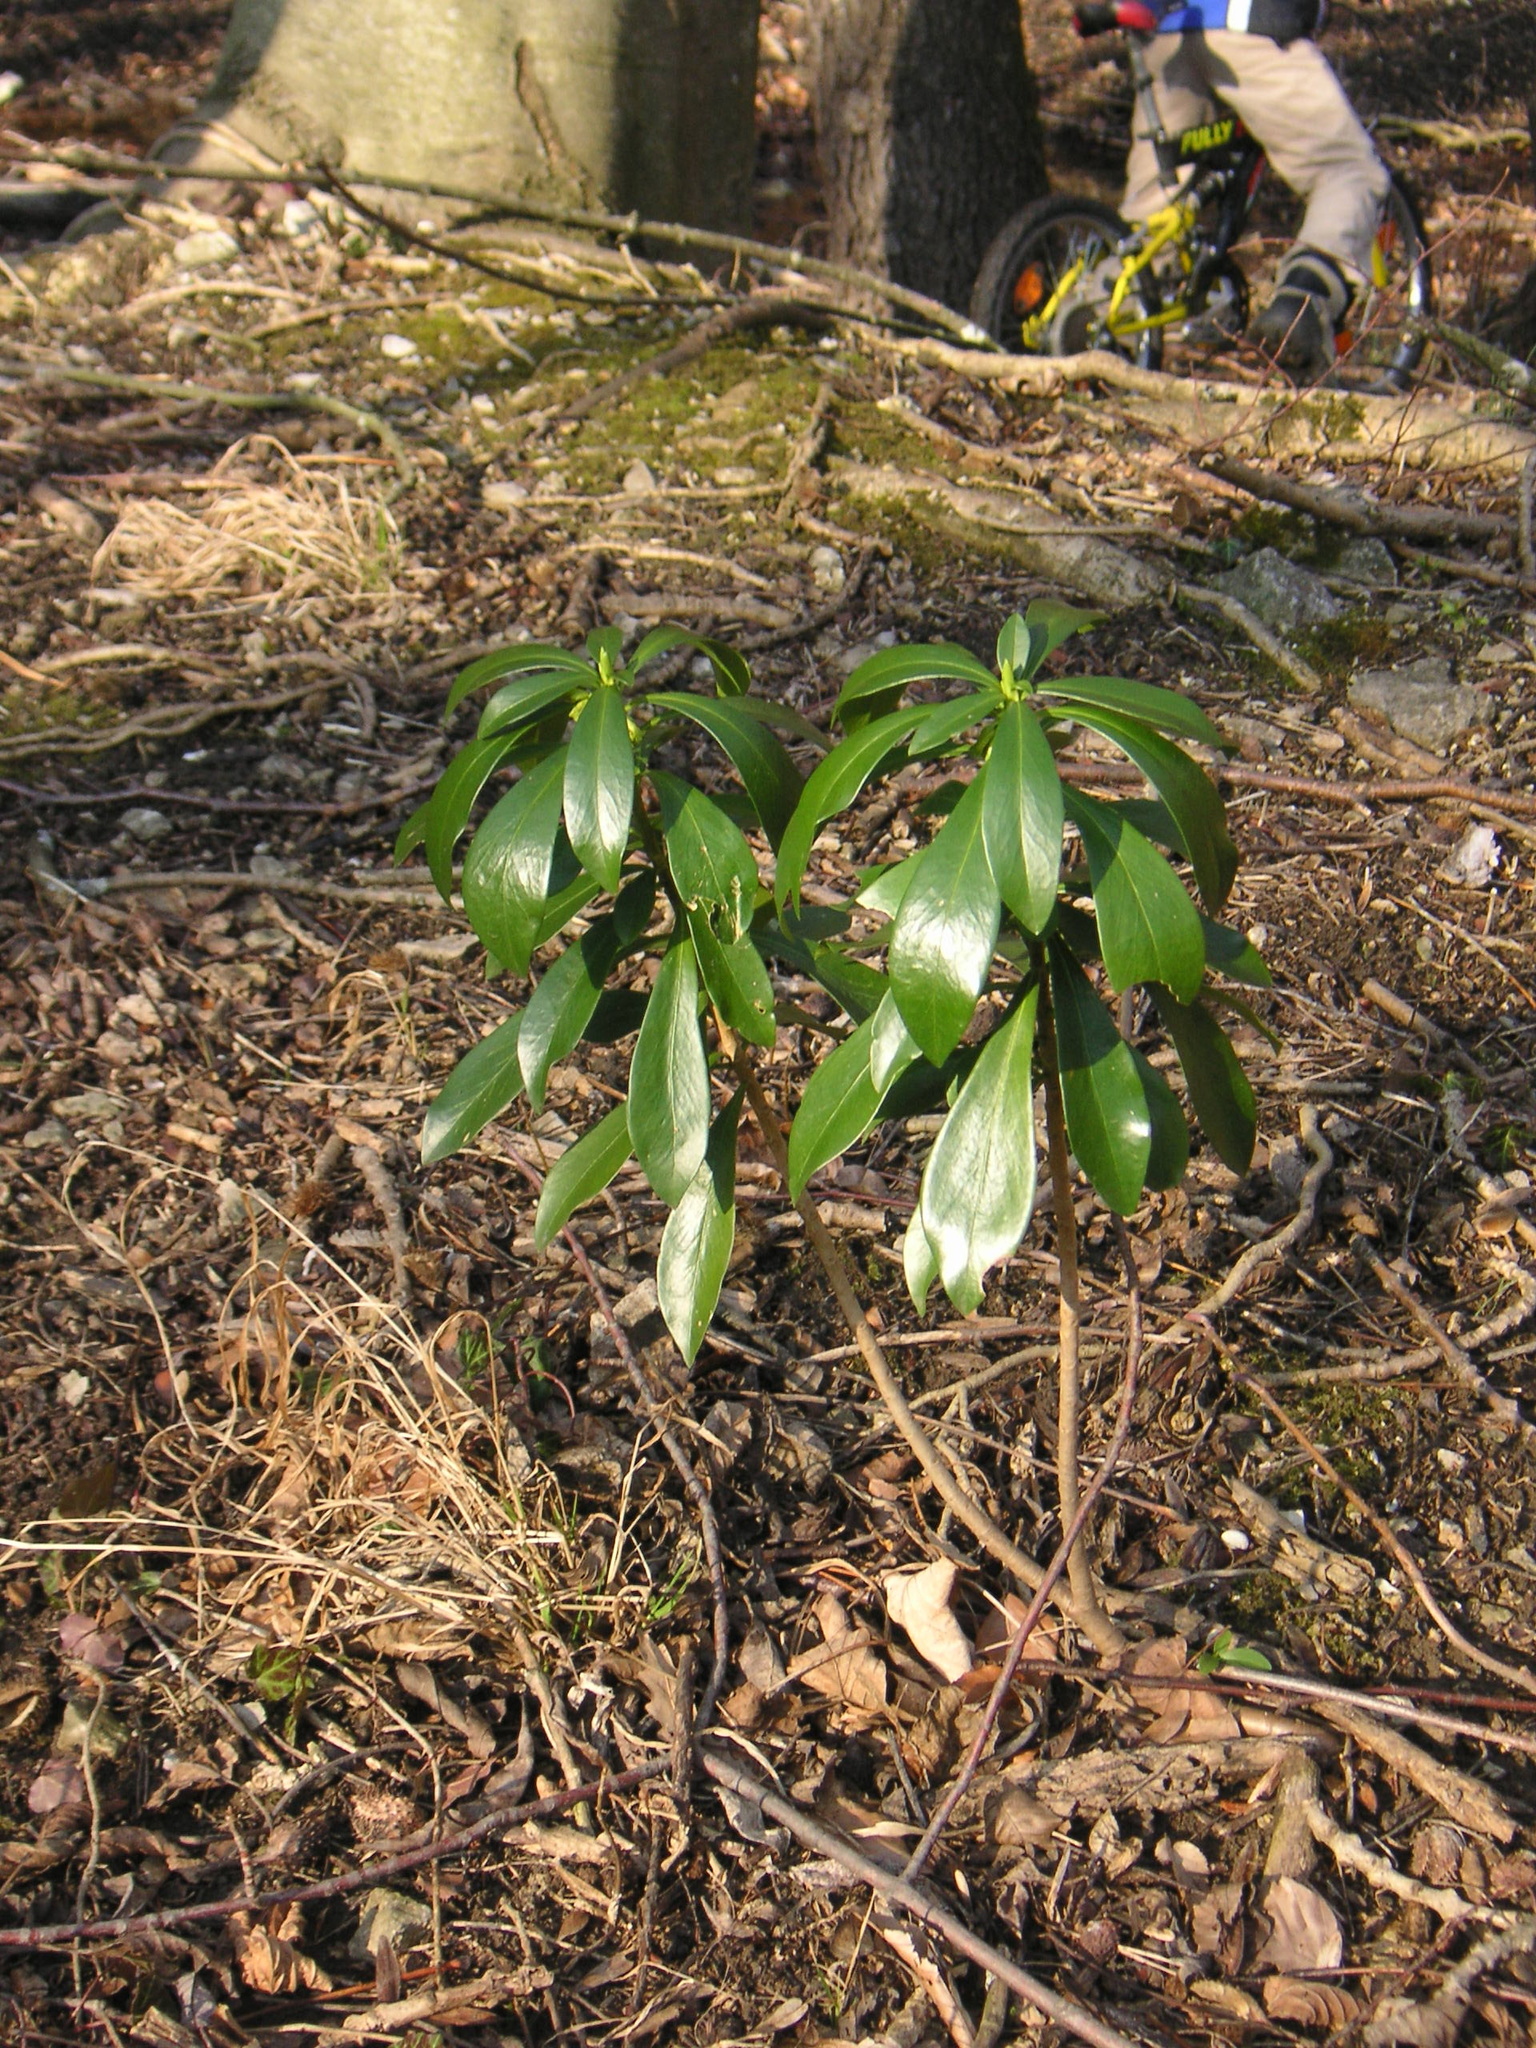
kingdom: Plantae
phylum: Tracheophyta
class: Magnoliopsida
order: Malvales
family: Thymelaeaceae
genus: Daphne
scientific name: Daphne laureola
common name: Spurge-laurel
